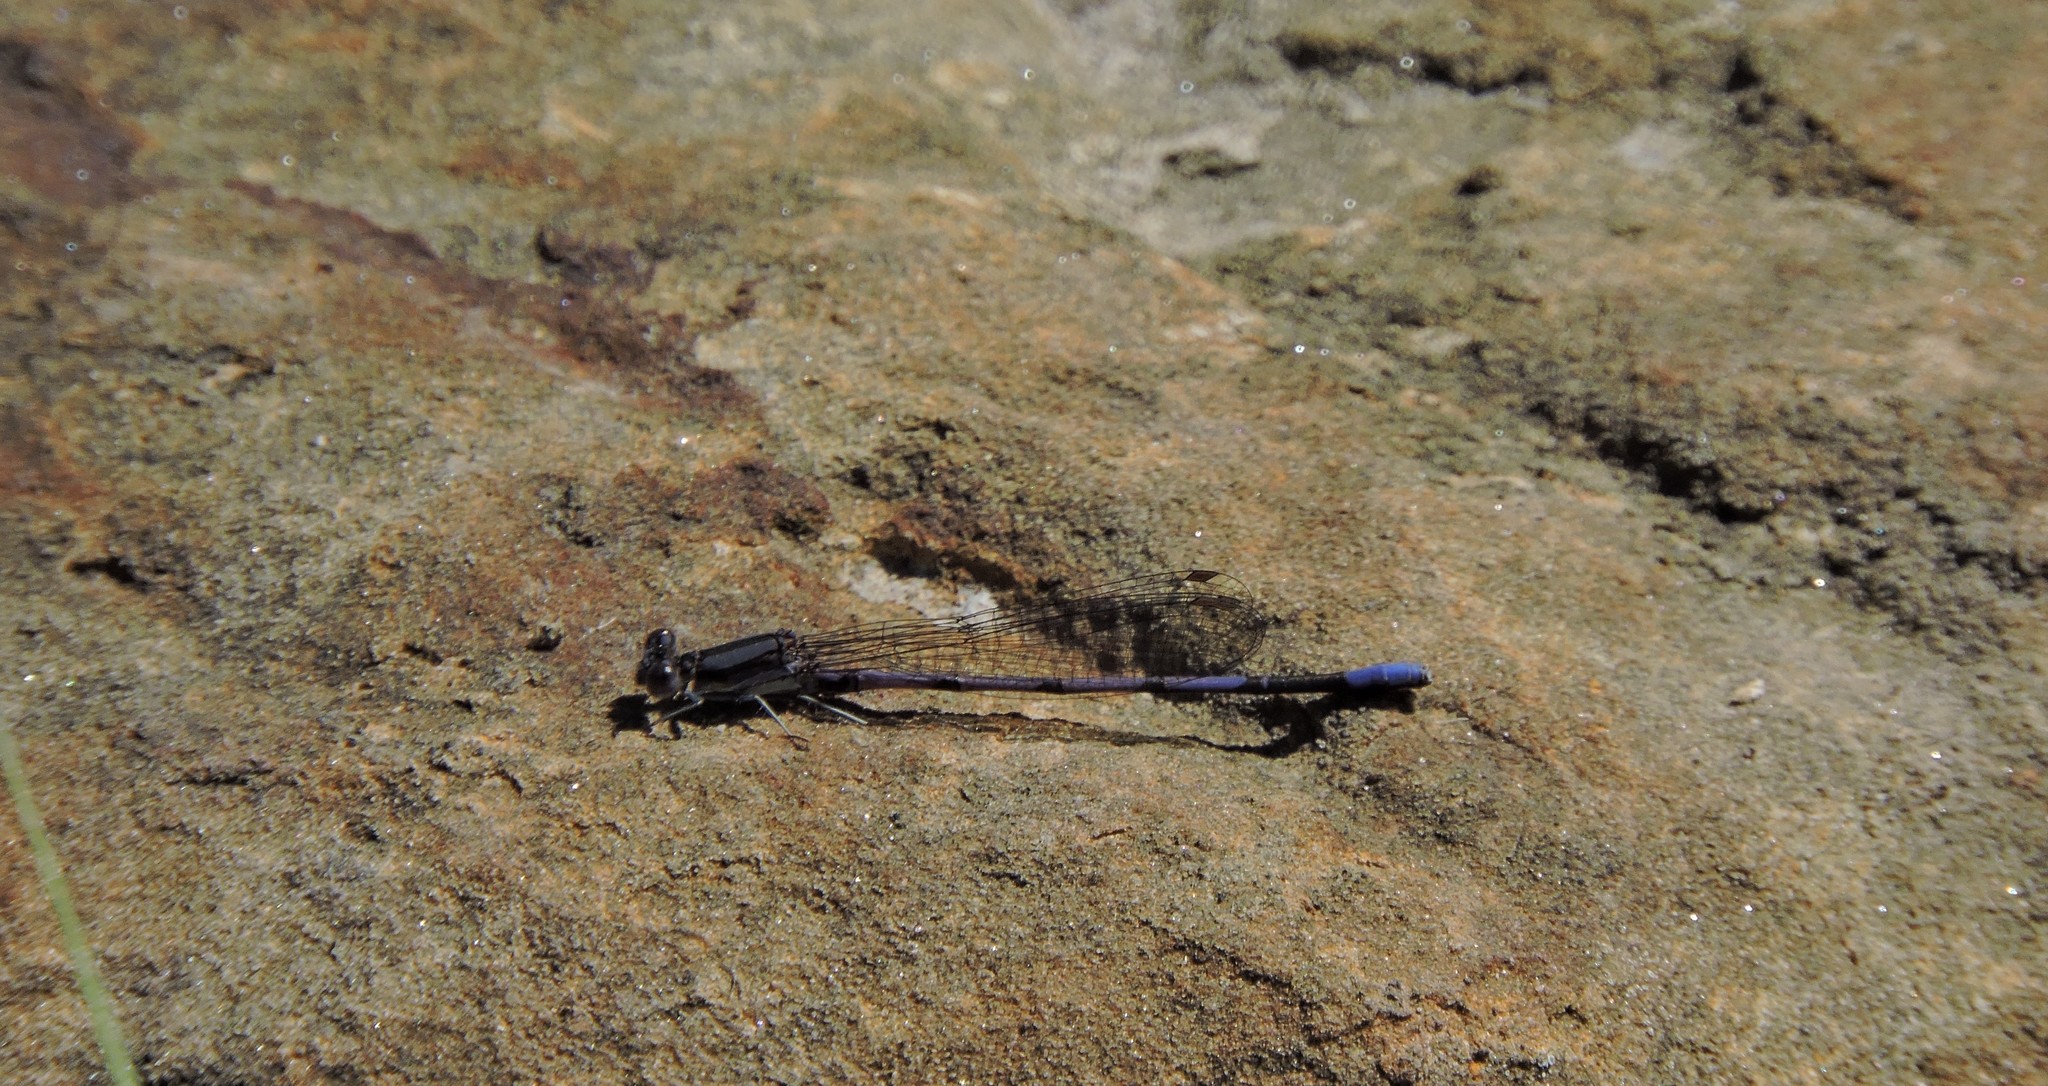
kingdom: Animalia
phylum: Arthropoda
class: Insecta
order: Odonata
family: Coenagrionidae
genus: Argia
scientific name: Argia fumipennis
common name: Variable dancer
